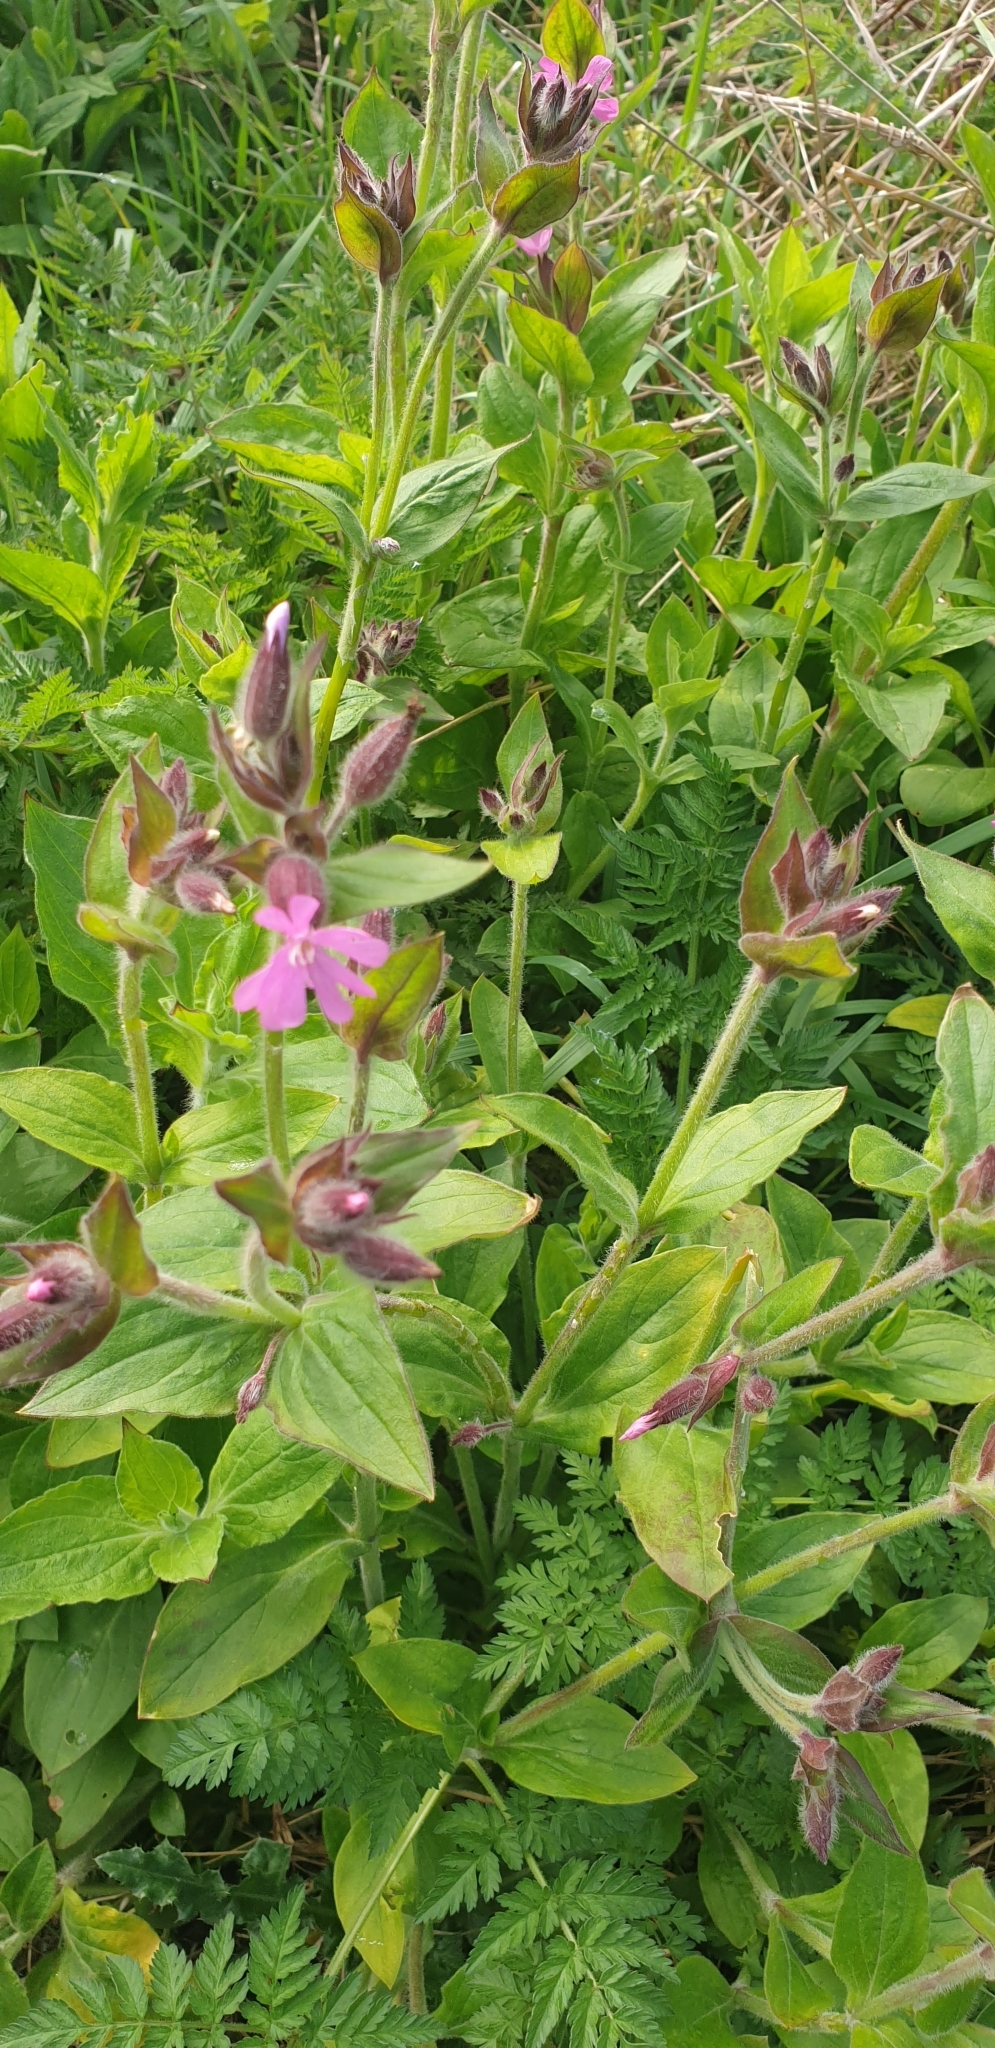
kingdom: Plantae
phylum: Tracheophyta
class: Magnoliopsida
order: Caryophyllales
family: Caryophyllaceae
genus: Silene
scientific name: Silene dioica
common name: Red campion
